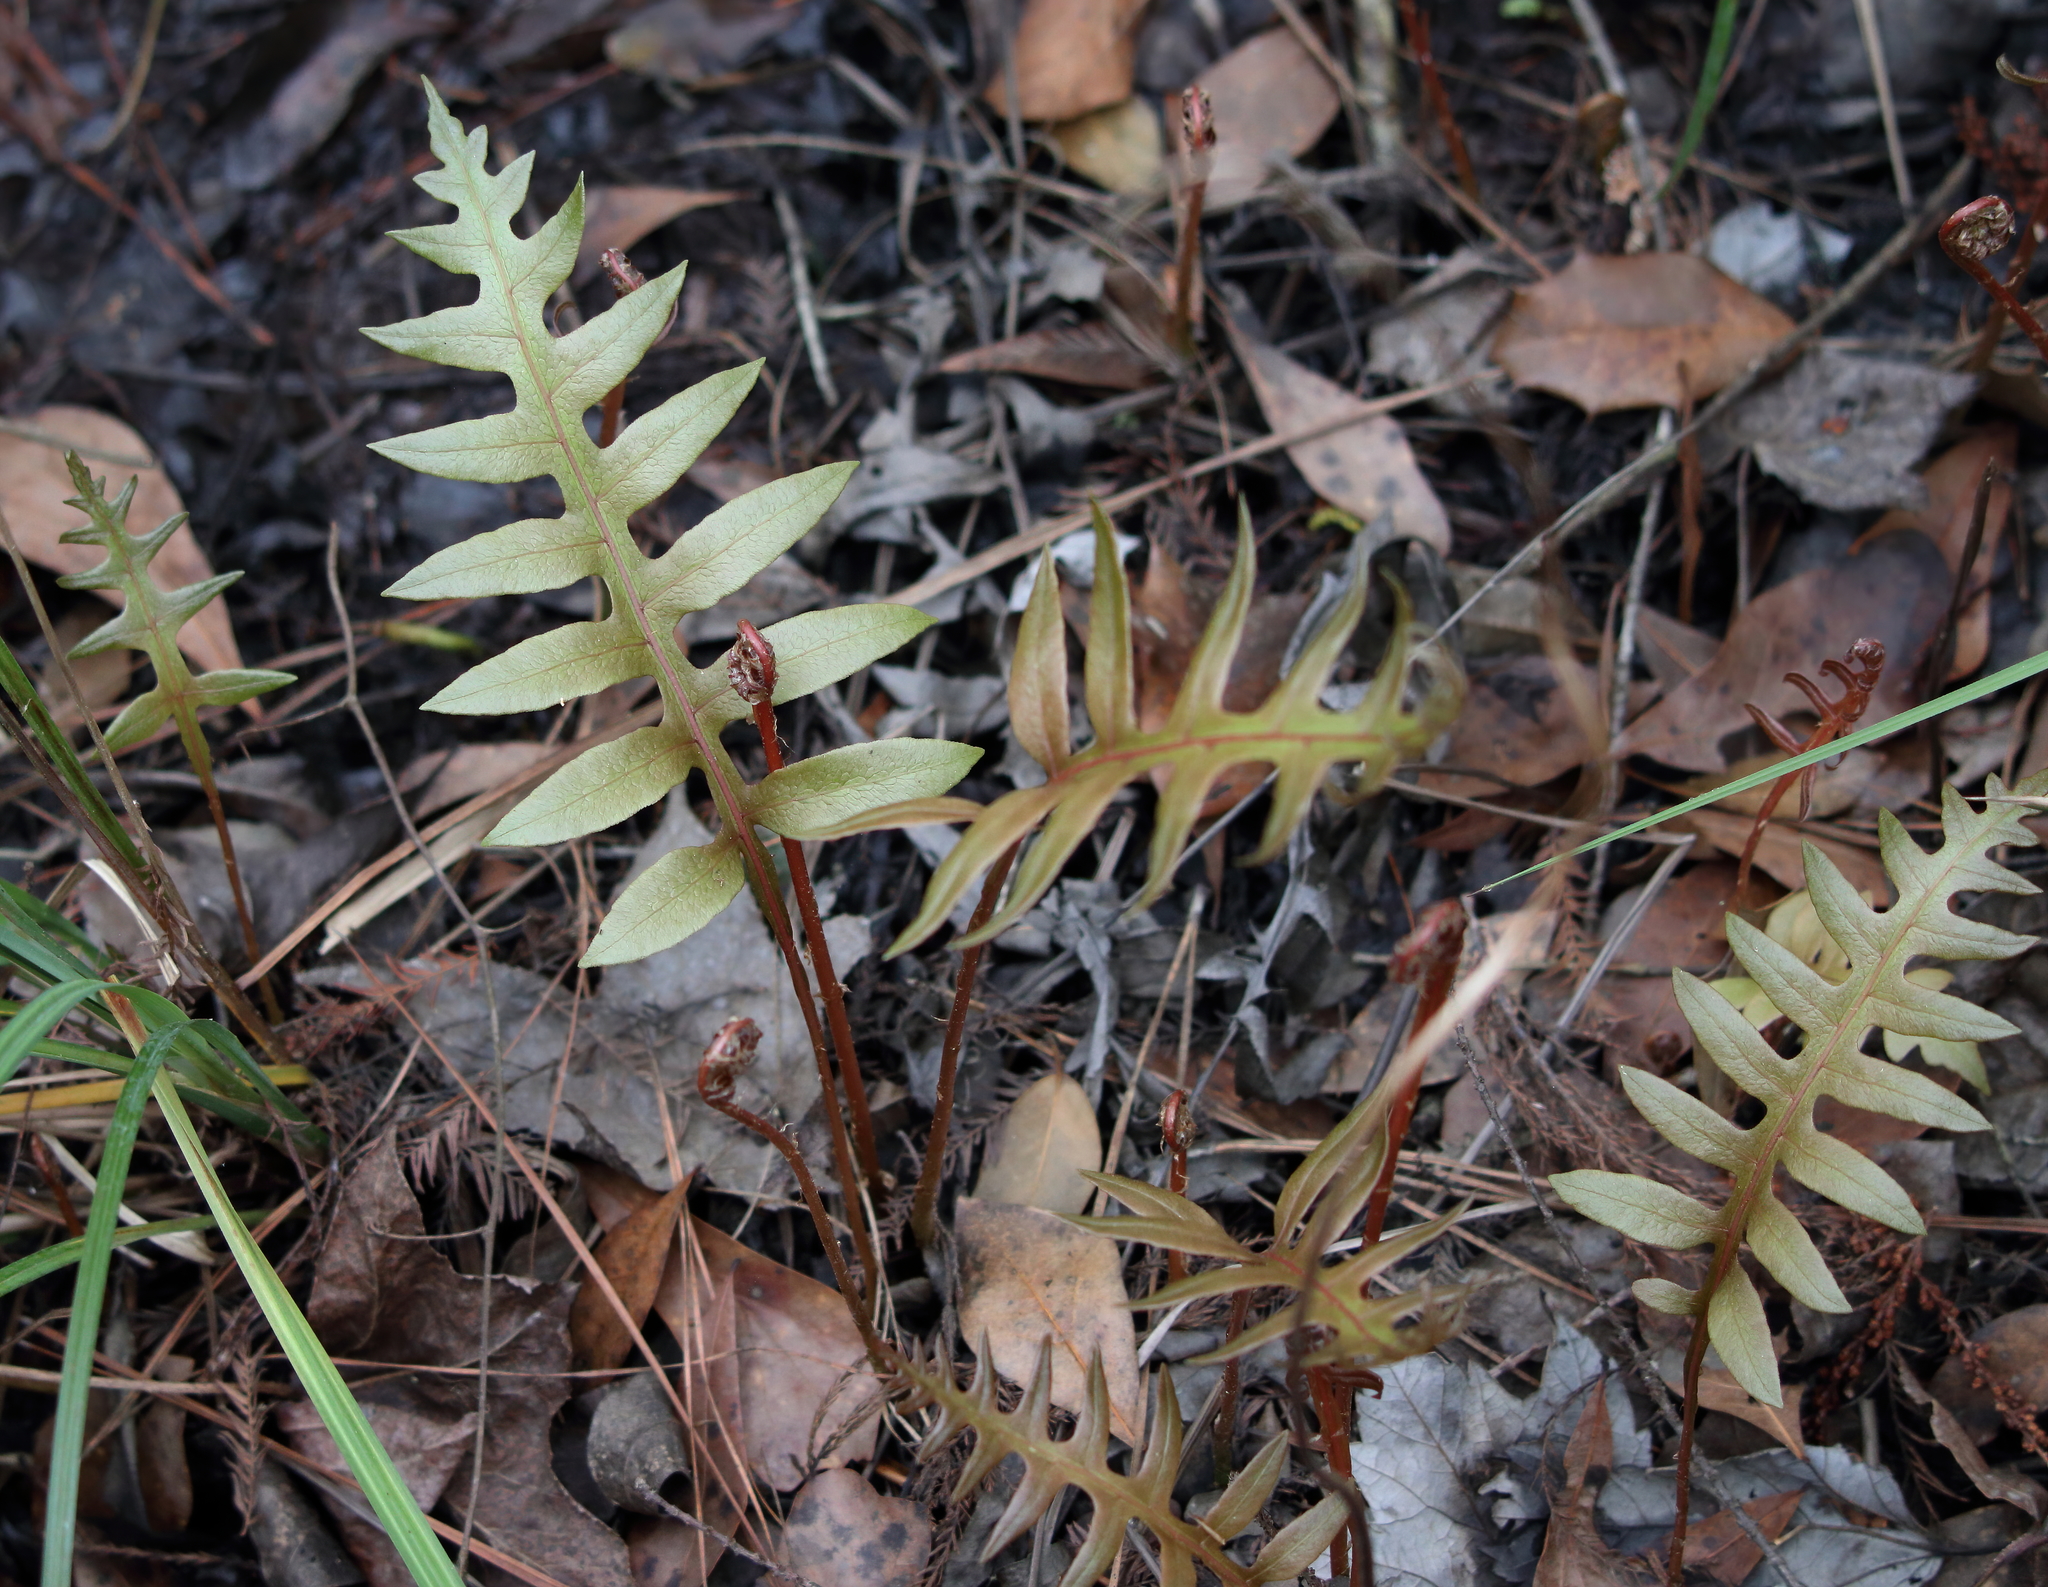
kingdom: Plantae
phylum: Tracheophyta
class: Polypodiopsida
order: Polypodiales
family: Blechnaceae
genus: Lorinseria
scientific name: Lorinseria areolata
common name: Dwarf chain fern
